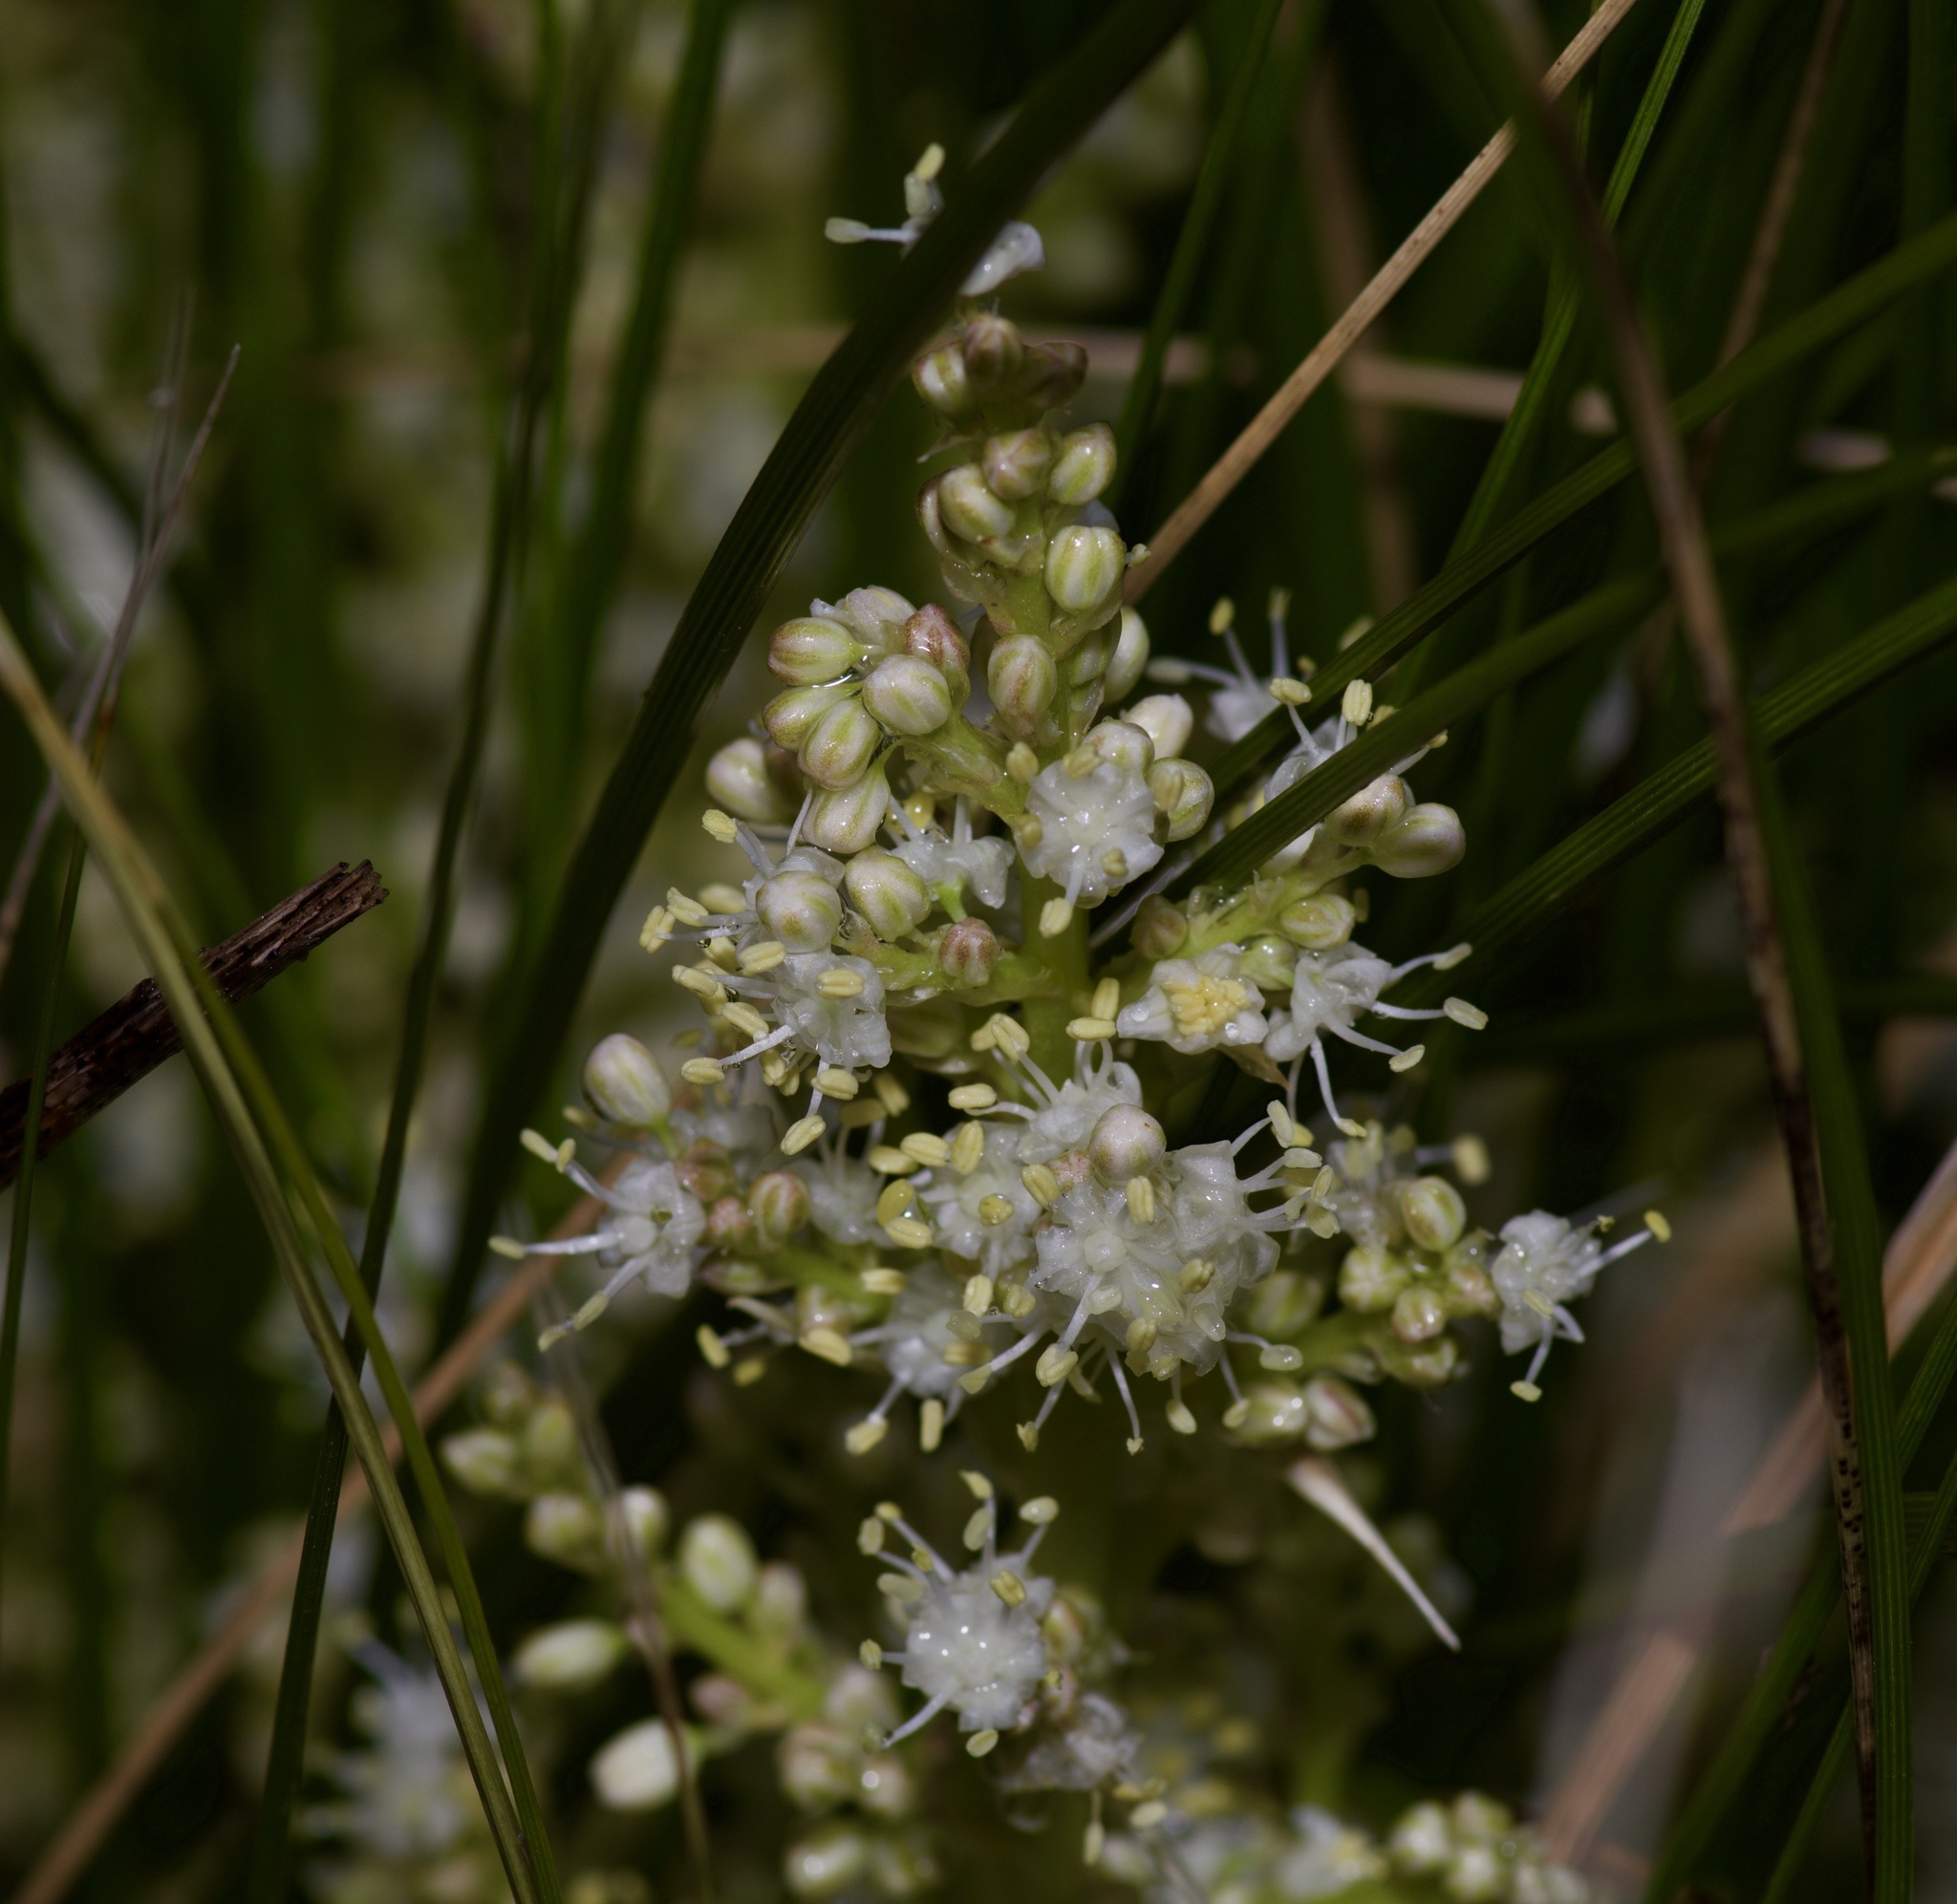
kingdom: Plantae
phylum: Tracheophyta
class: Liliopsida
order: Asparagales
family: Asparagaceae
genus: Nolina
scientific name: Nolina texana
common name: Texas sacahuiste
